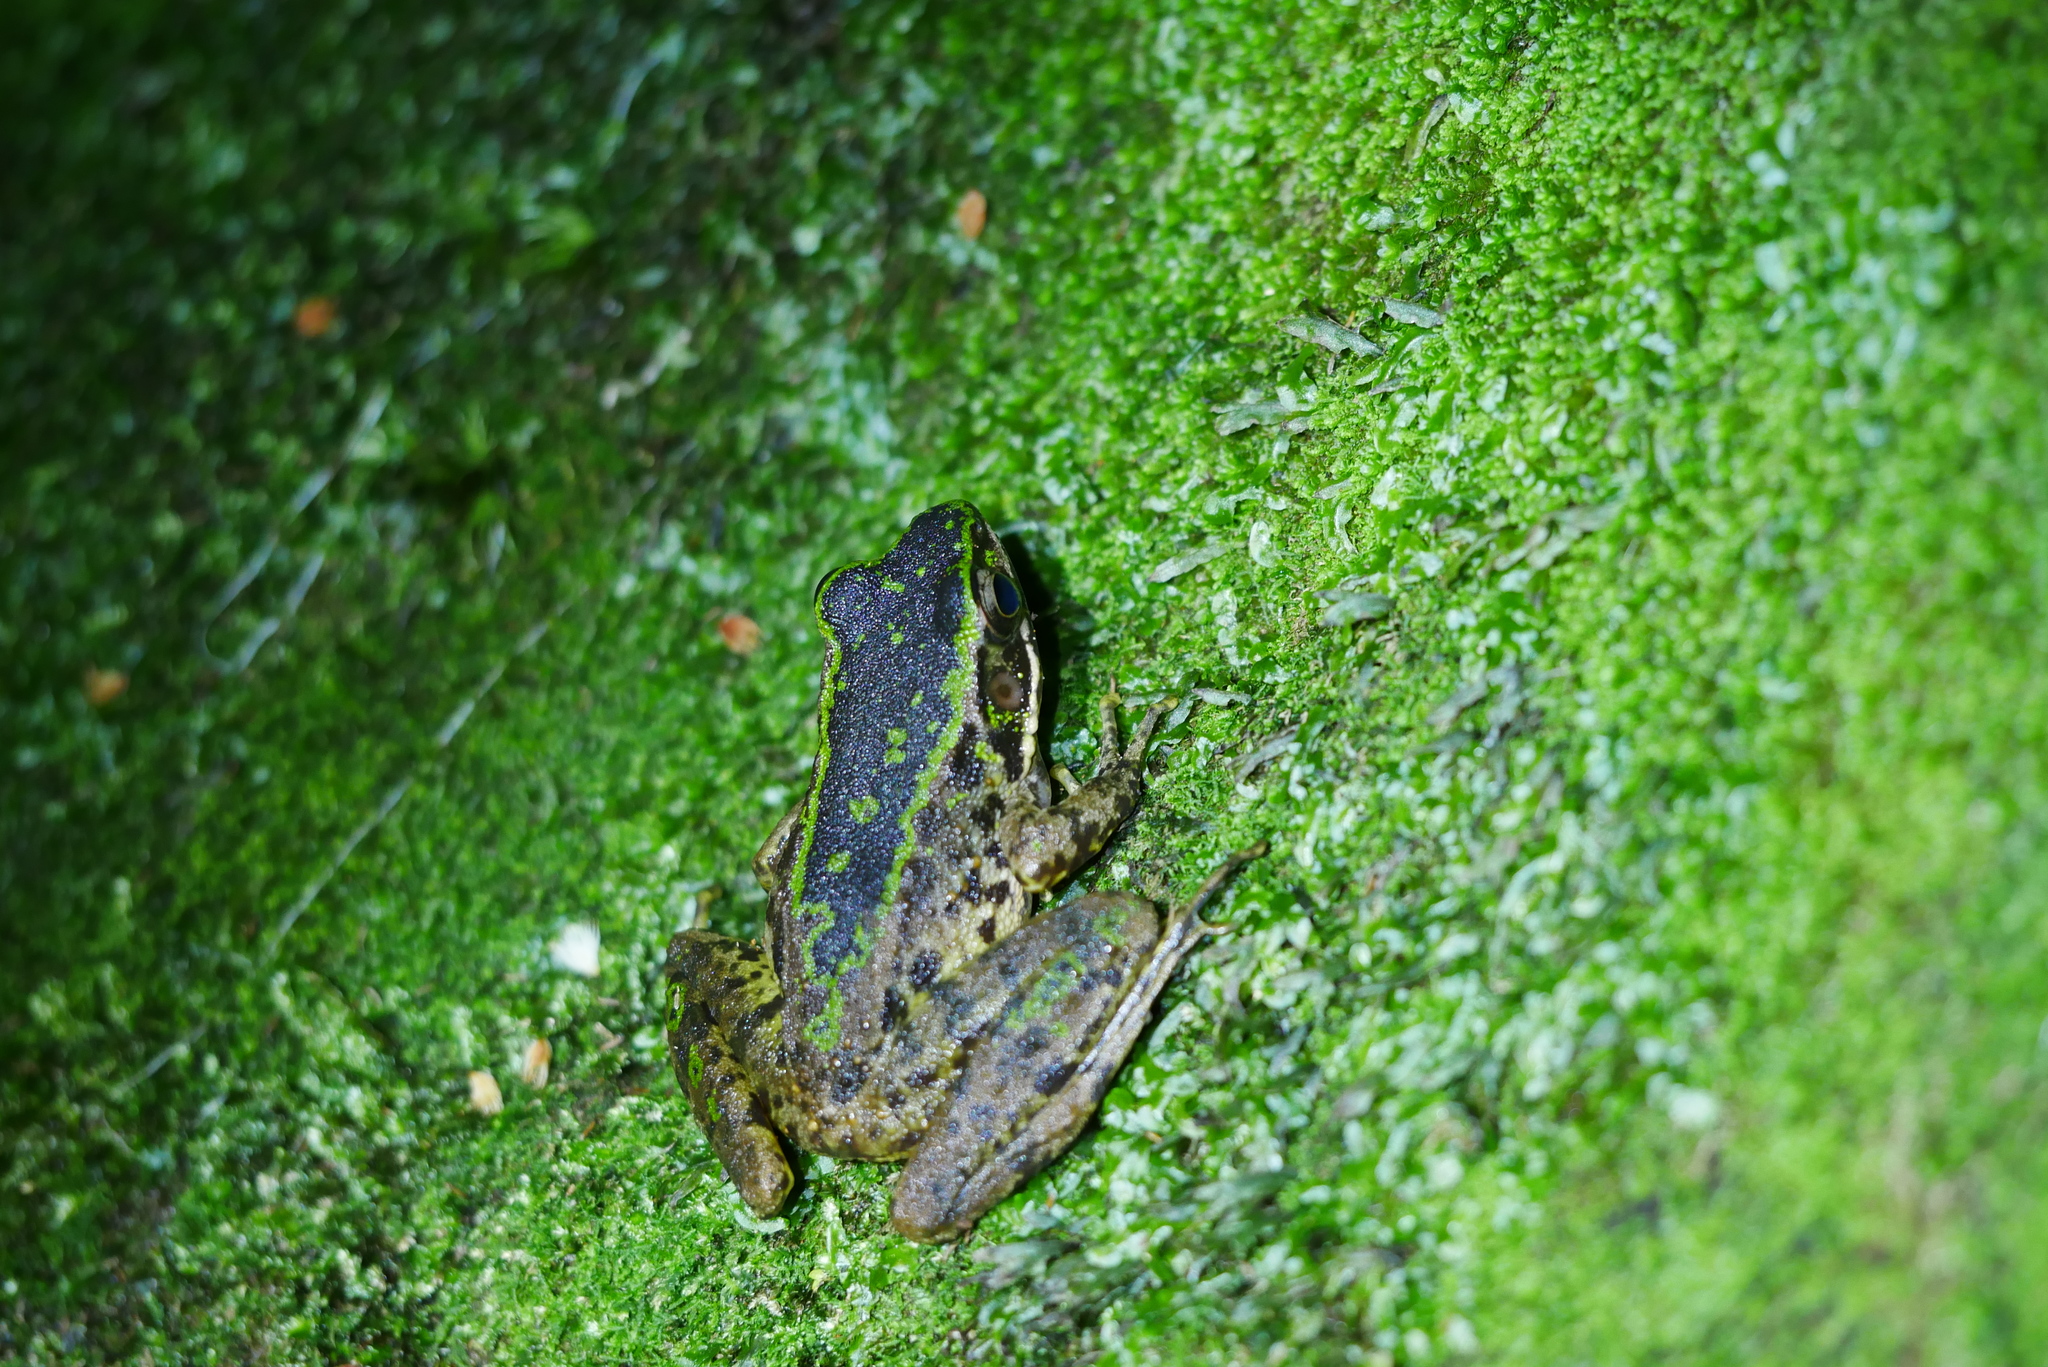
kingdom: Animalia
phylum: Chordata
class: Amphibia
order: Anura
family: Ranidae
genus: Odorrana
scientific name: Odorrana swinhoana
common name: Bangkimtsing frog
